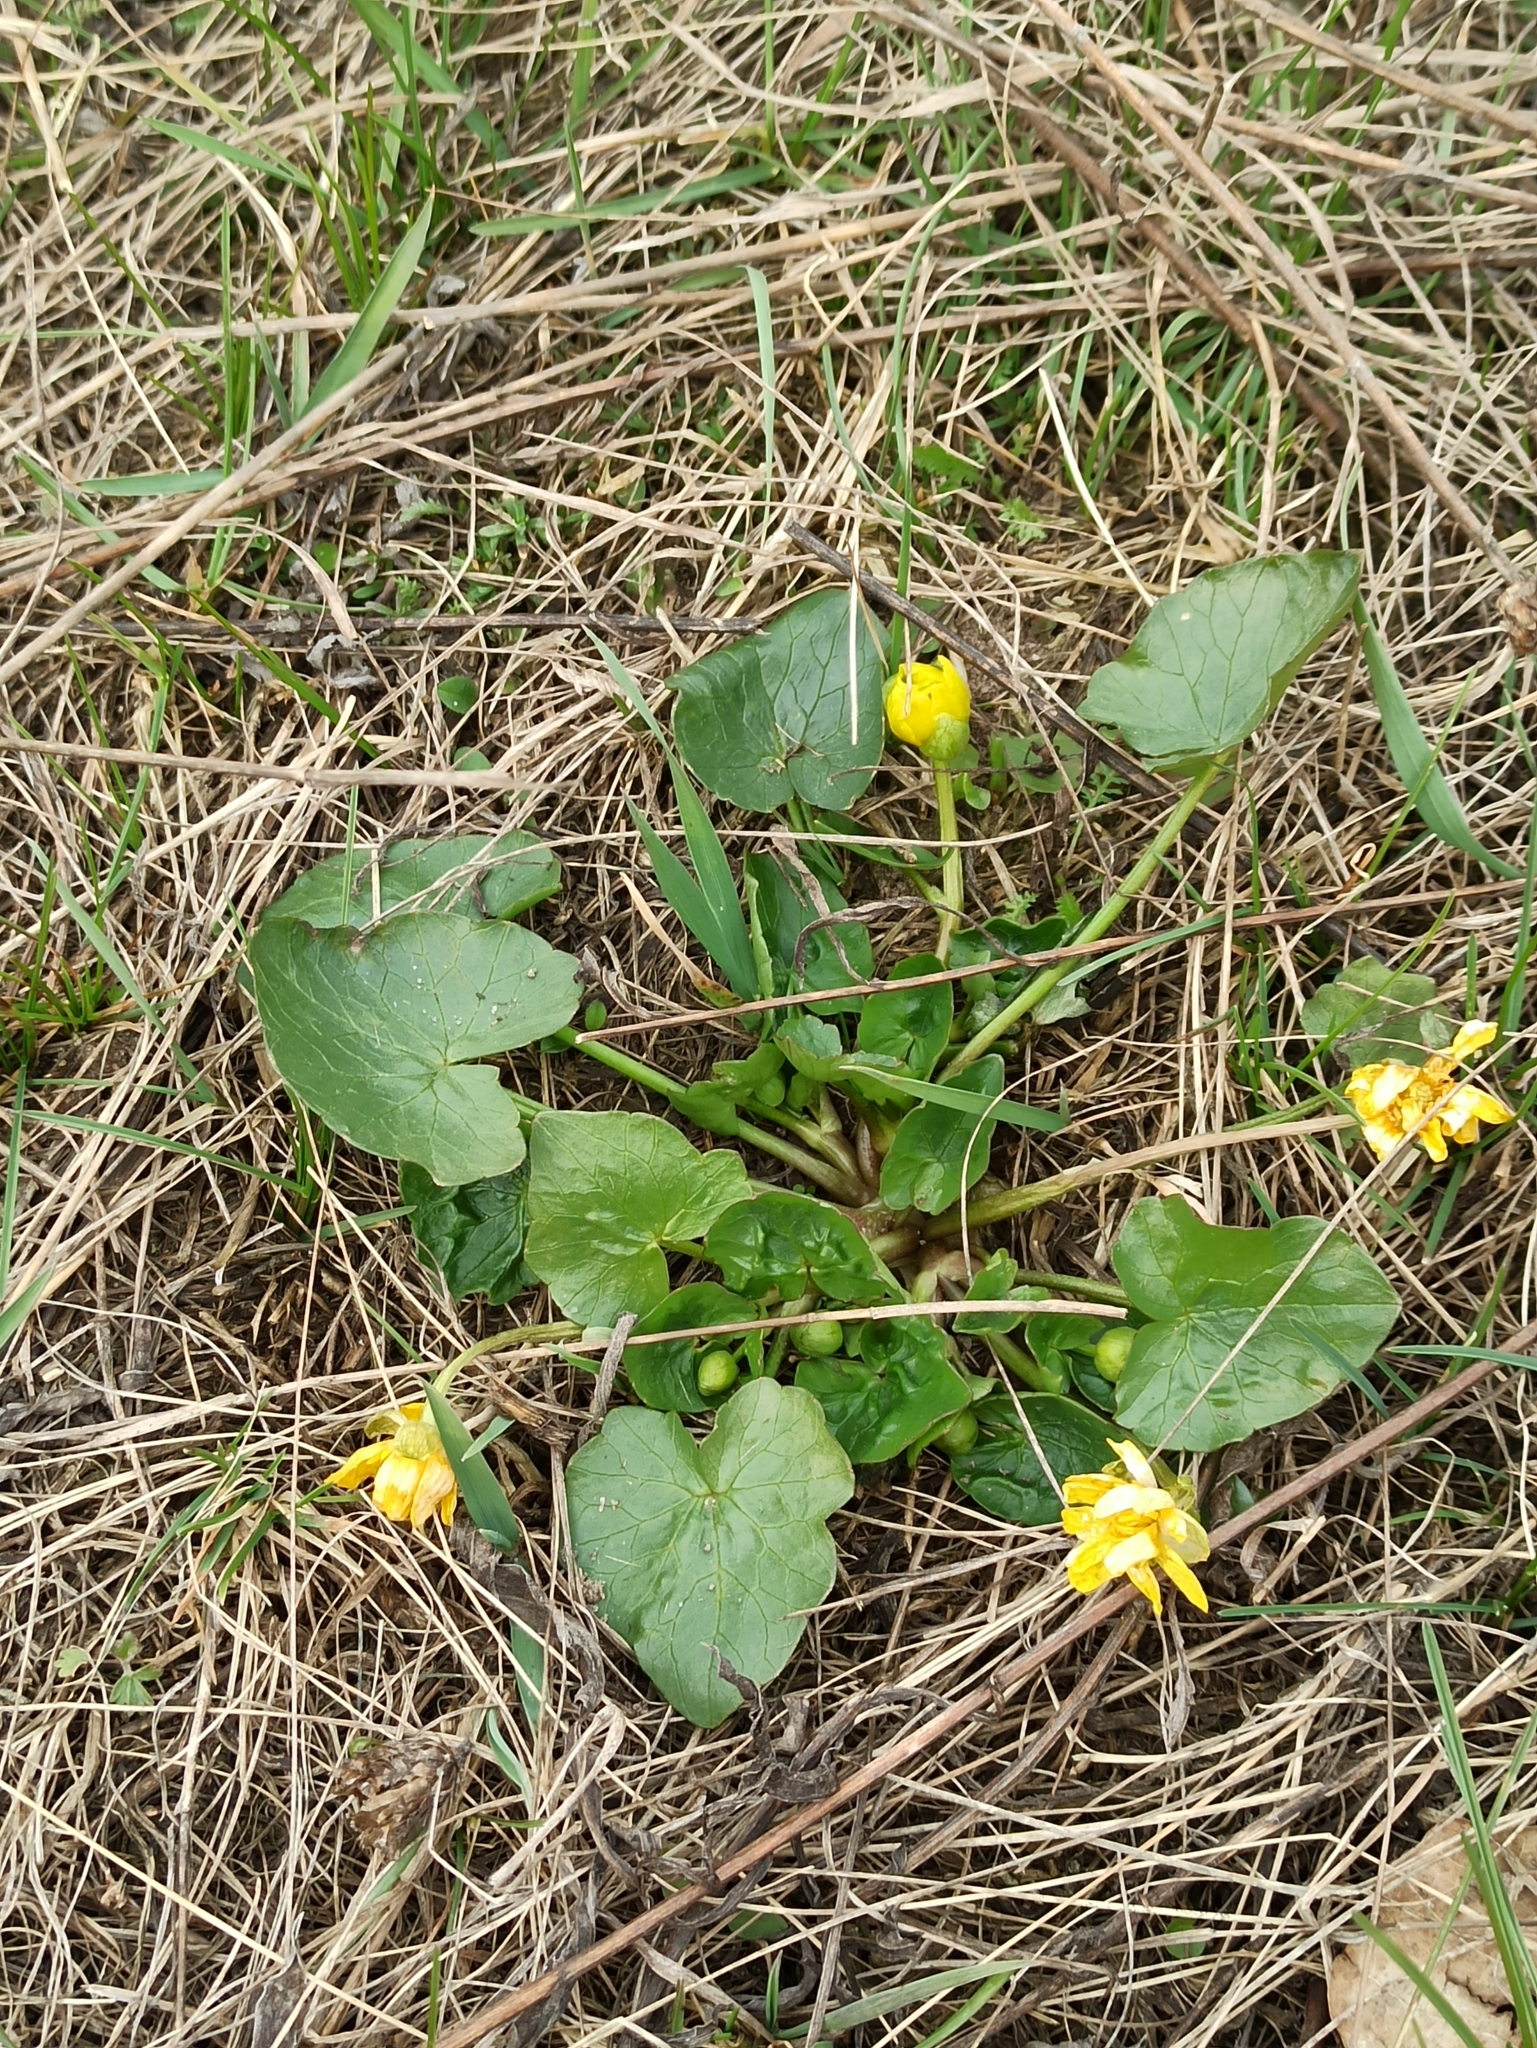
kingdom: Plantae
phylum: Tracheophyta
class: Magnoliopsida
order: Ranunculales
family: Ranunculaceae
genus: Ficaria
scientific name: Ficaria verna
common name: Lesser celandine
